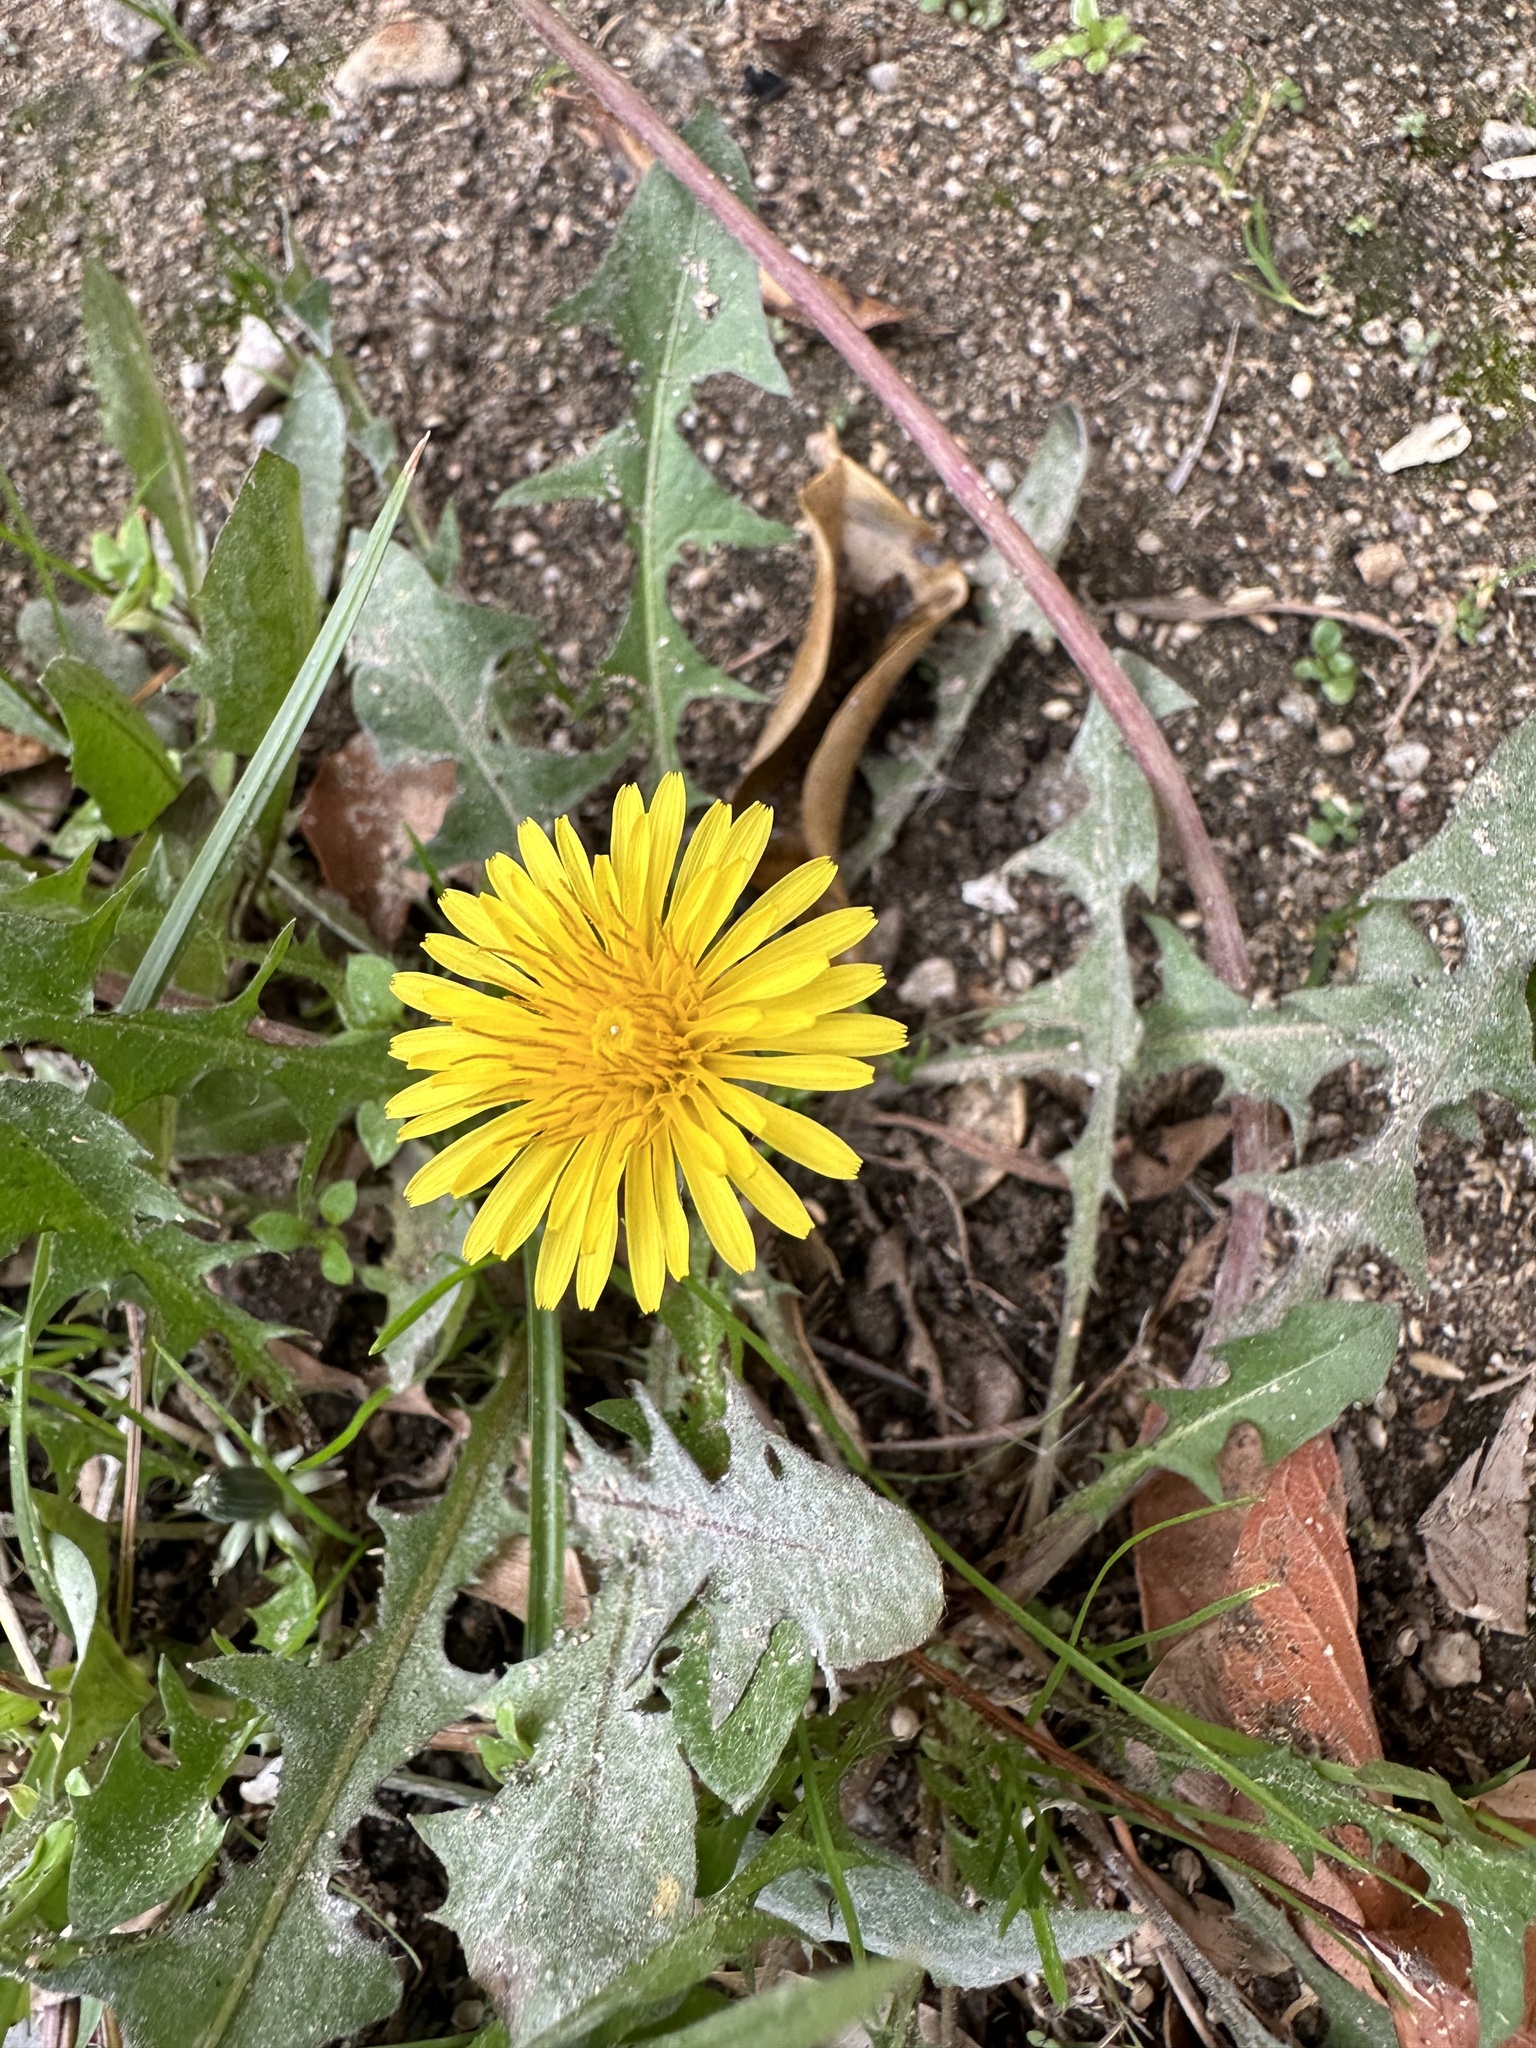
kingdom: Plantae
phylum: Tracheophyta
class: Magnoliopsida
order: Asterales
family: Asteraceae
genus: Taraxacum
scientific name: Taraxacum
